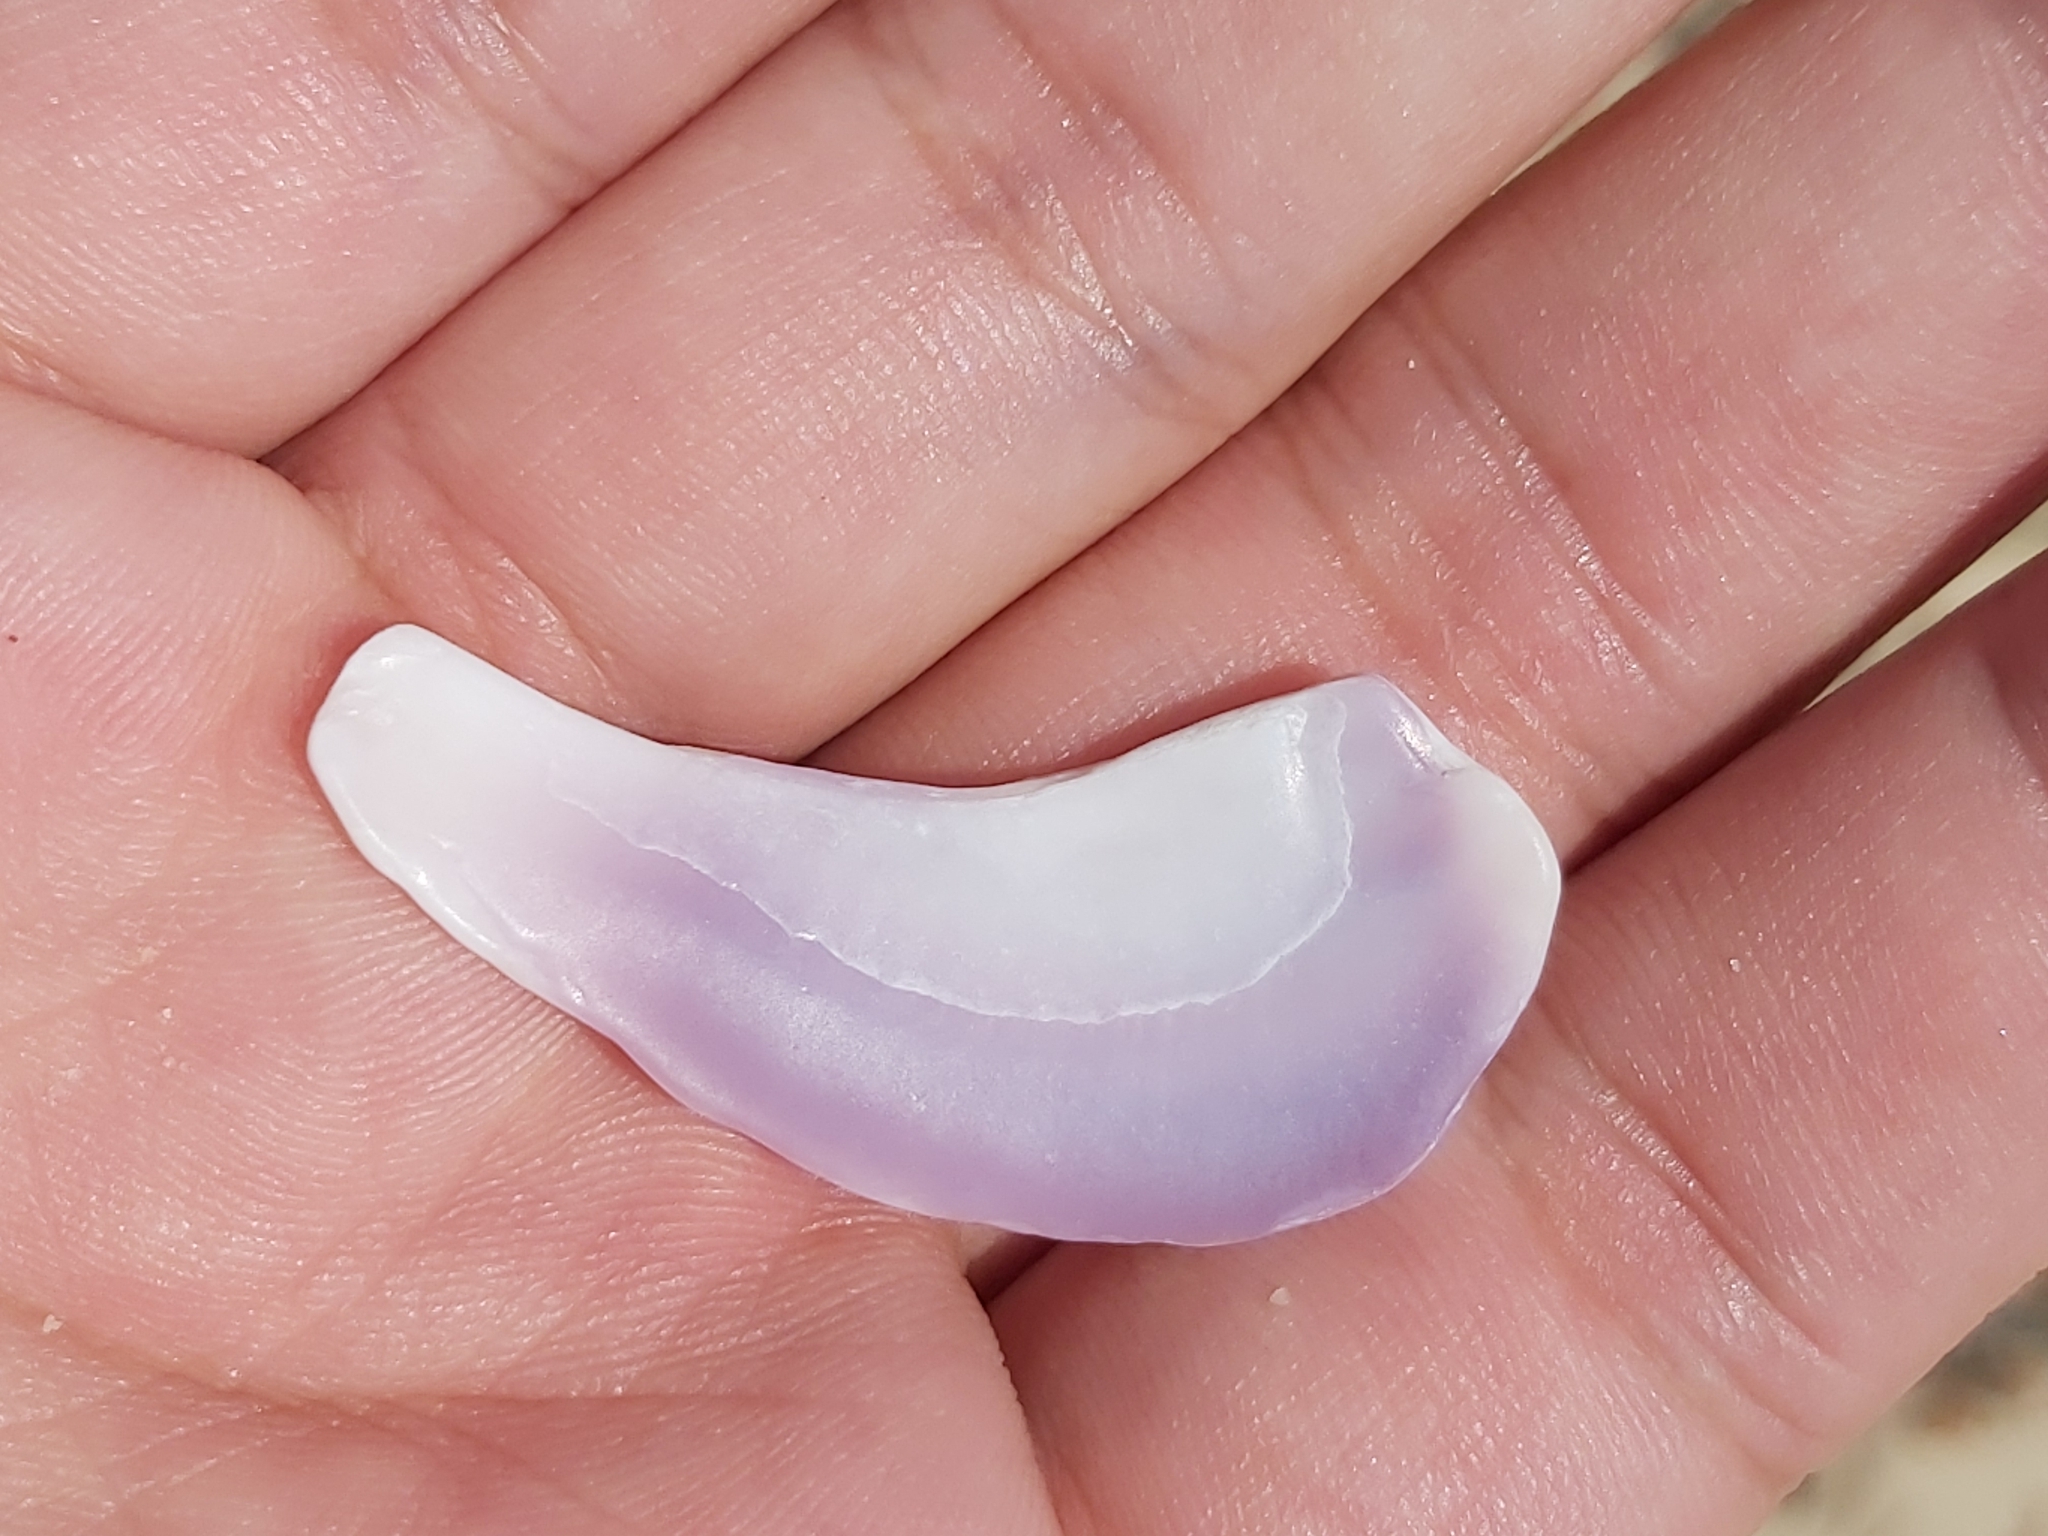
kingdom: Animalia
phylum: Mollusca
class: Bivalvia
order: Cardiida
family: Donacidae
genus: Latona
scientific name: Latona deltoides
